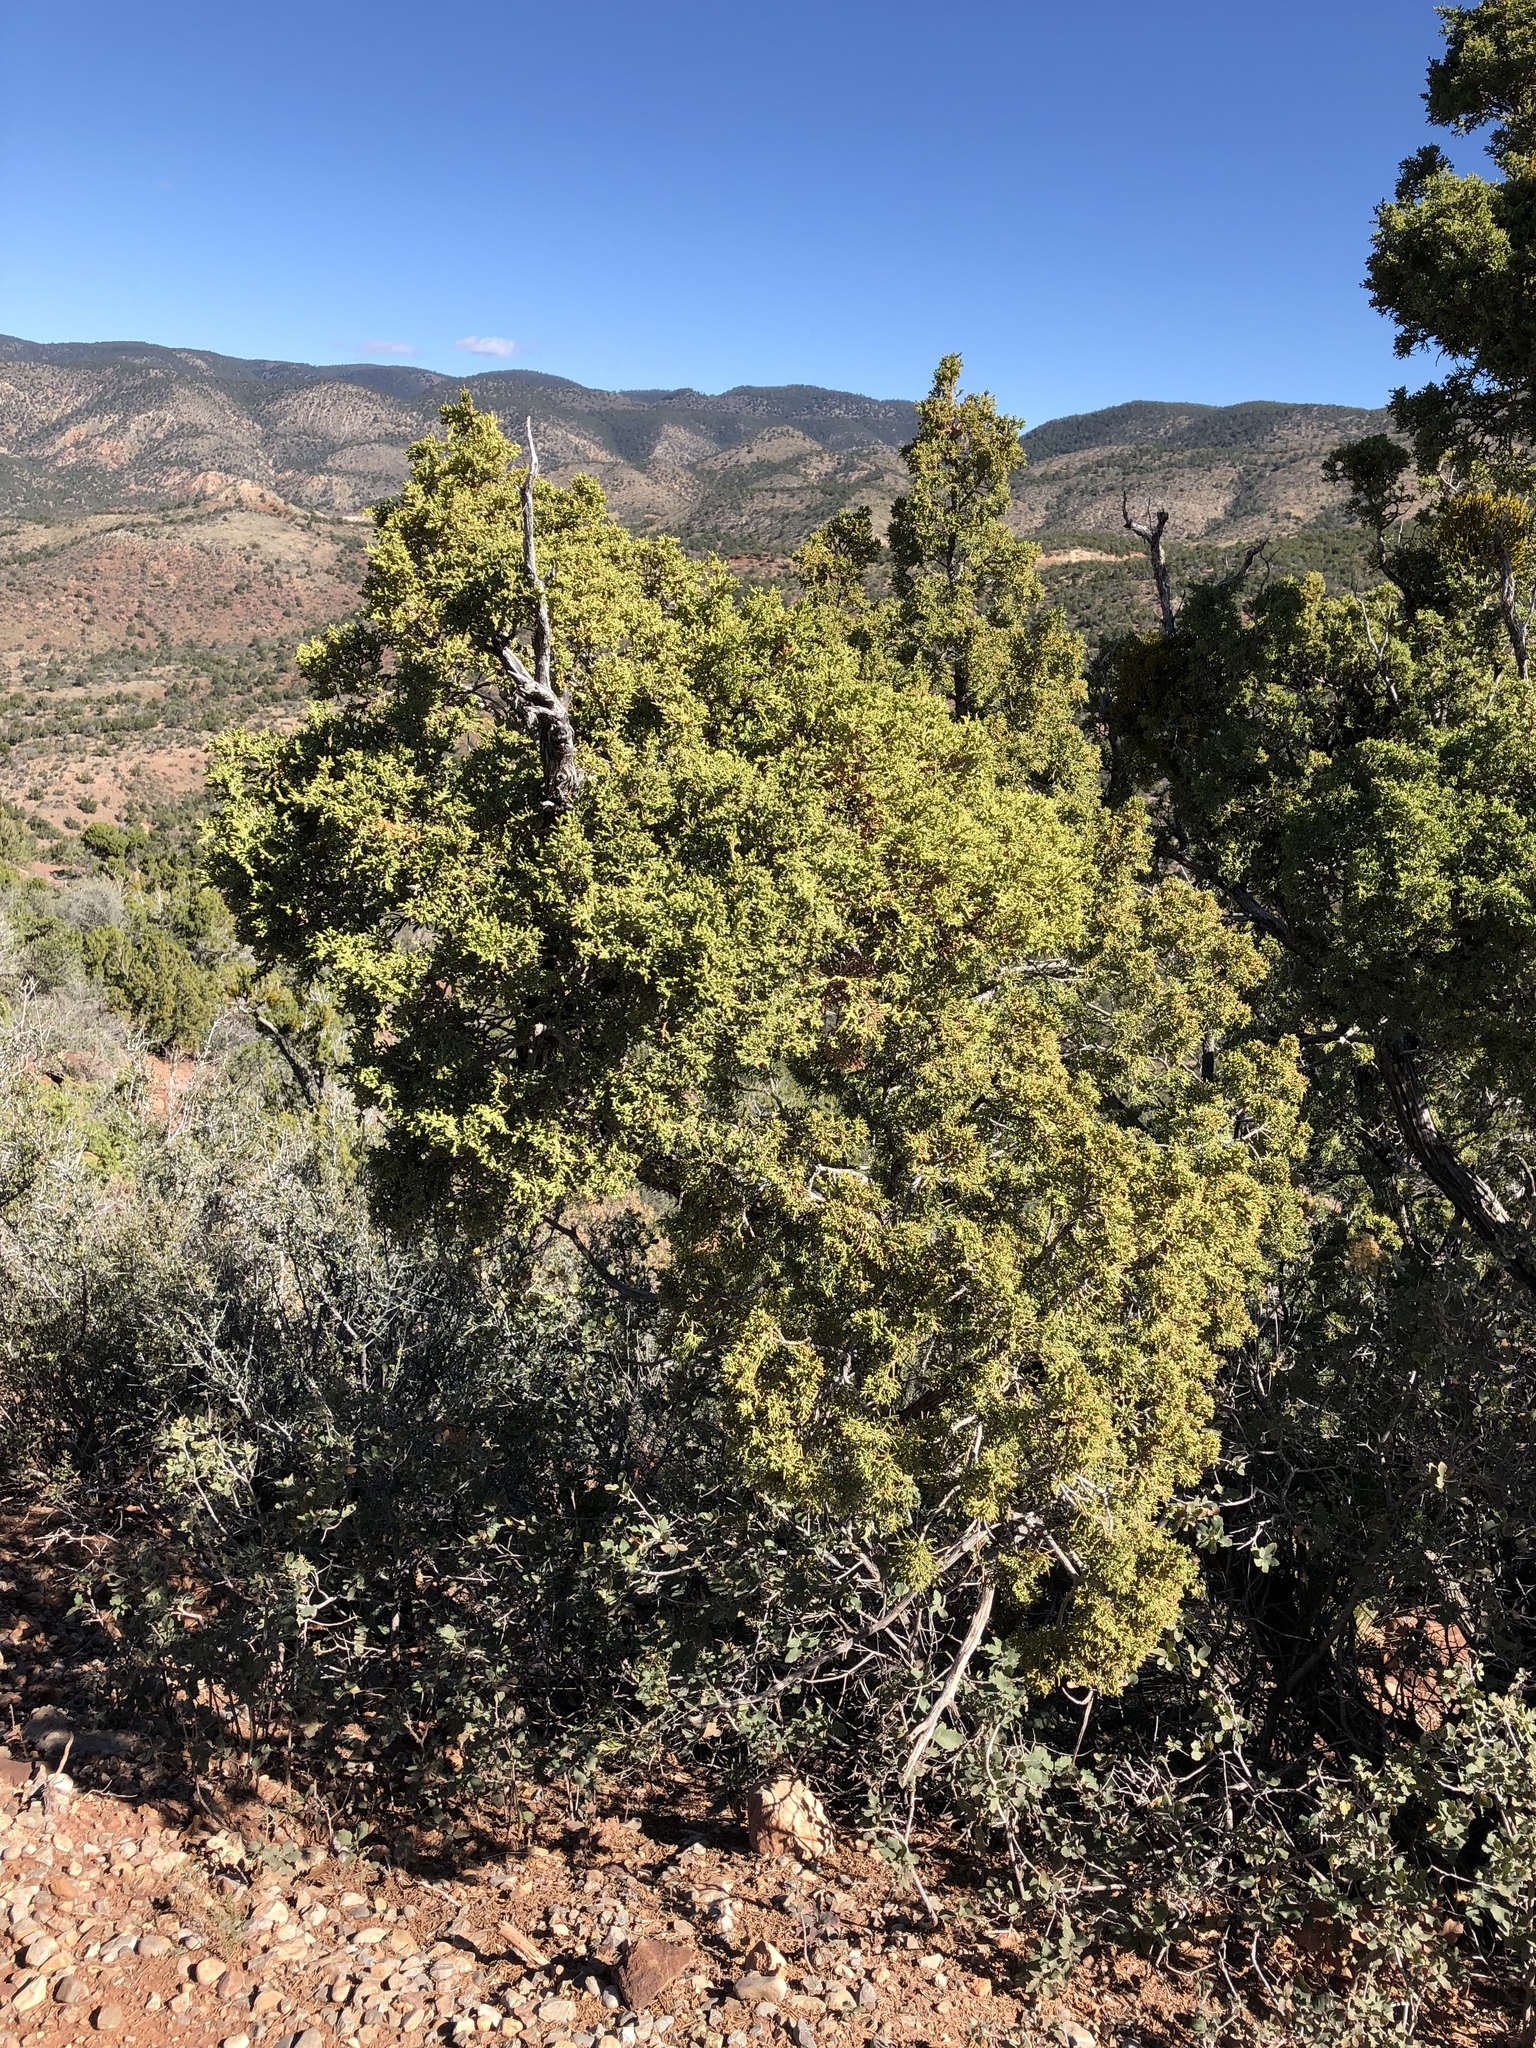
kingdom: Plantae
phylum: Tracheophyta
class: Pinopsida
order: Pinales
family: Cupressaceae
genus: Juniperus
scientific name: Juniperus monosperma
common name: One-seed juniper
